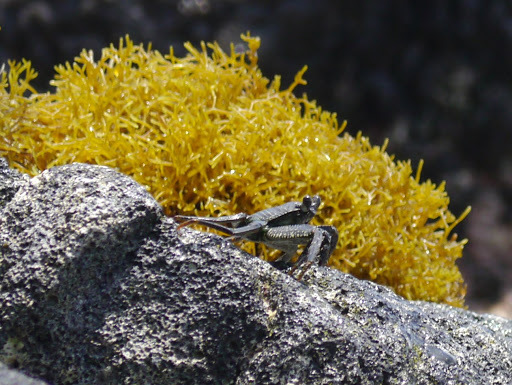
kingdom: Animalia
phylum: Arthropoda
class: Malacostraca
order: Decapoda
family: Grapsidae
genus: Grapsus
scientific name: Grapsus tenuicrustatus
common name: Natal lightfoot crab
